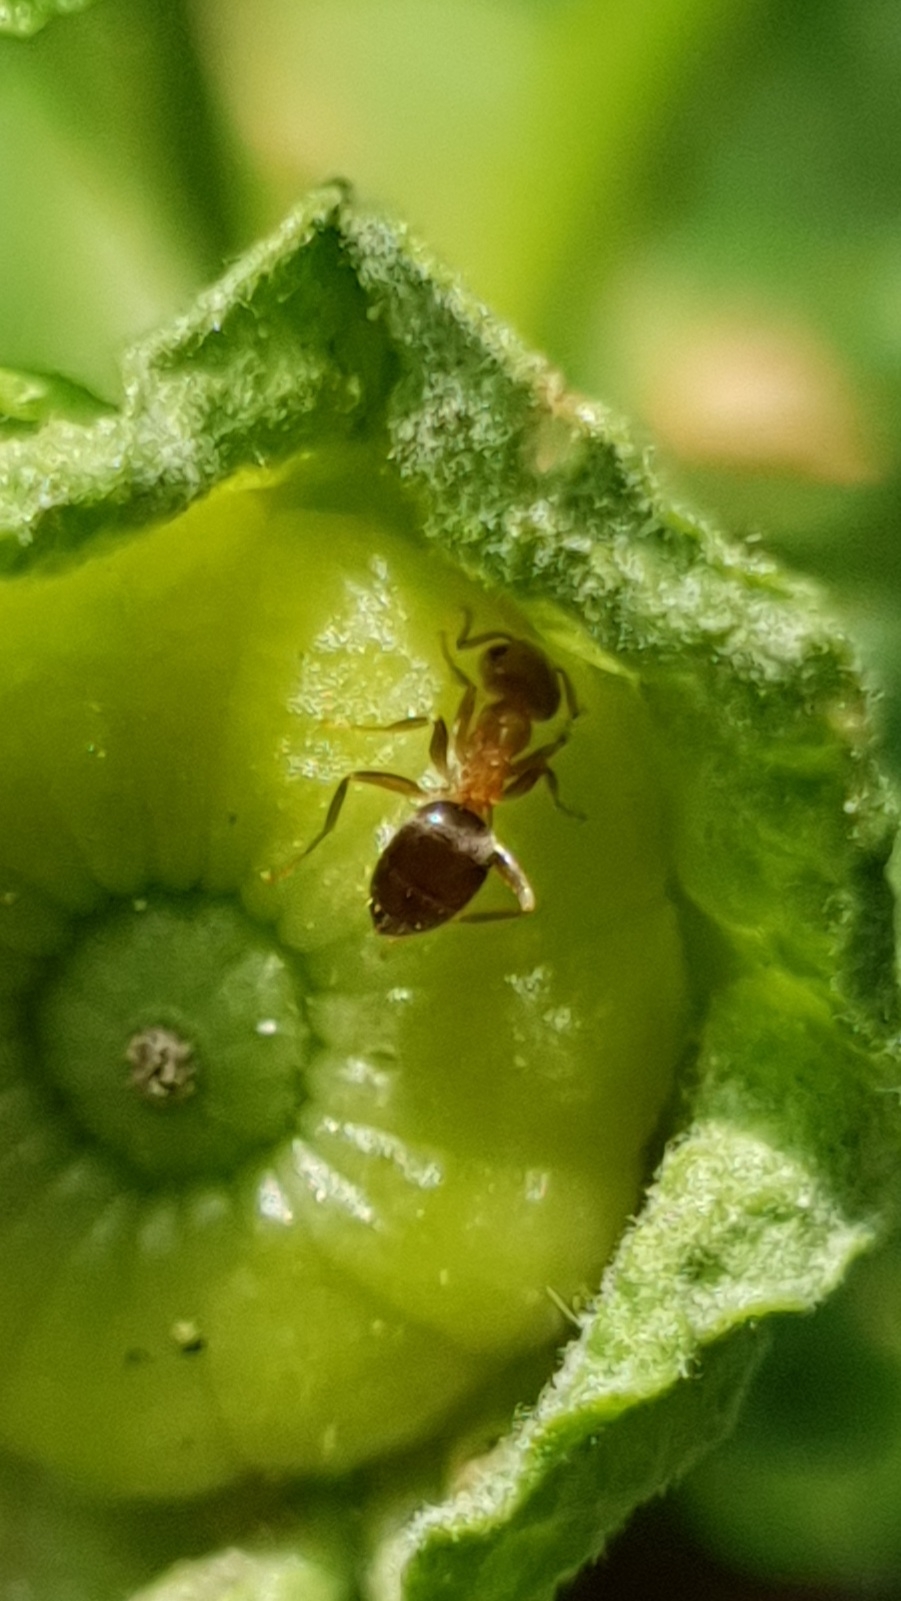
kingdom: Animalia
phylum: Arthropoda
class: Insecta
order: Hymenoptera
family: Formicidae
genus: Lasius
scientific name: Lasius brunneus
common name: Brown ant
